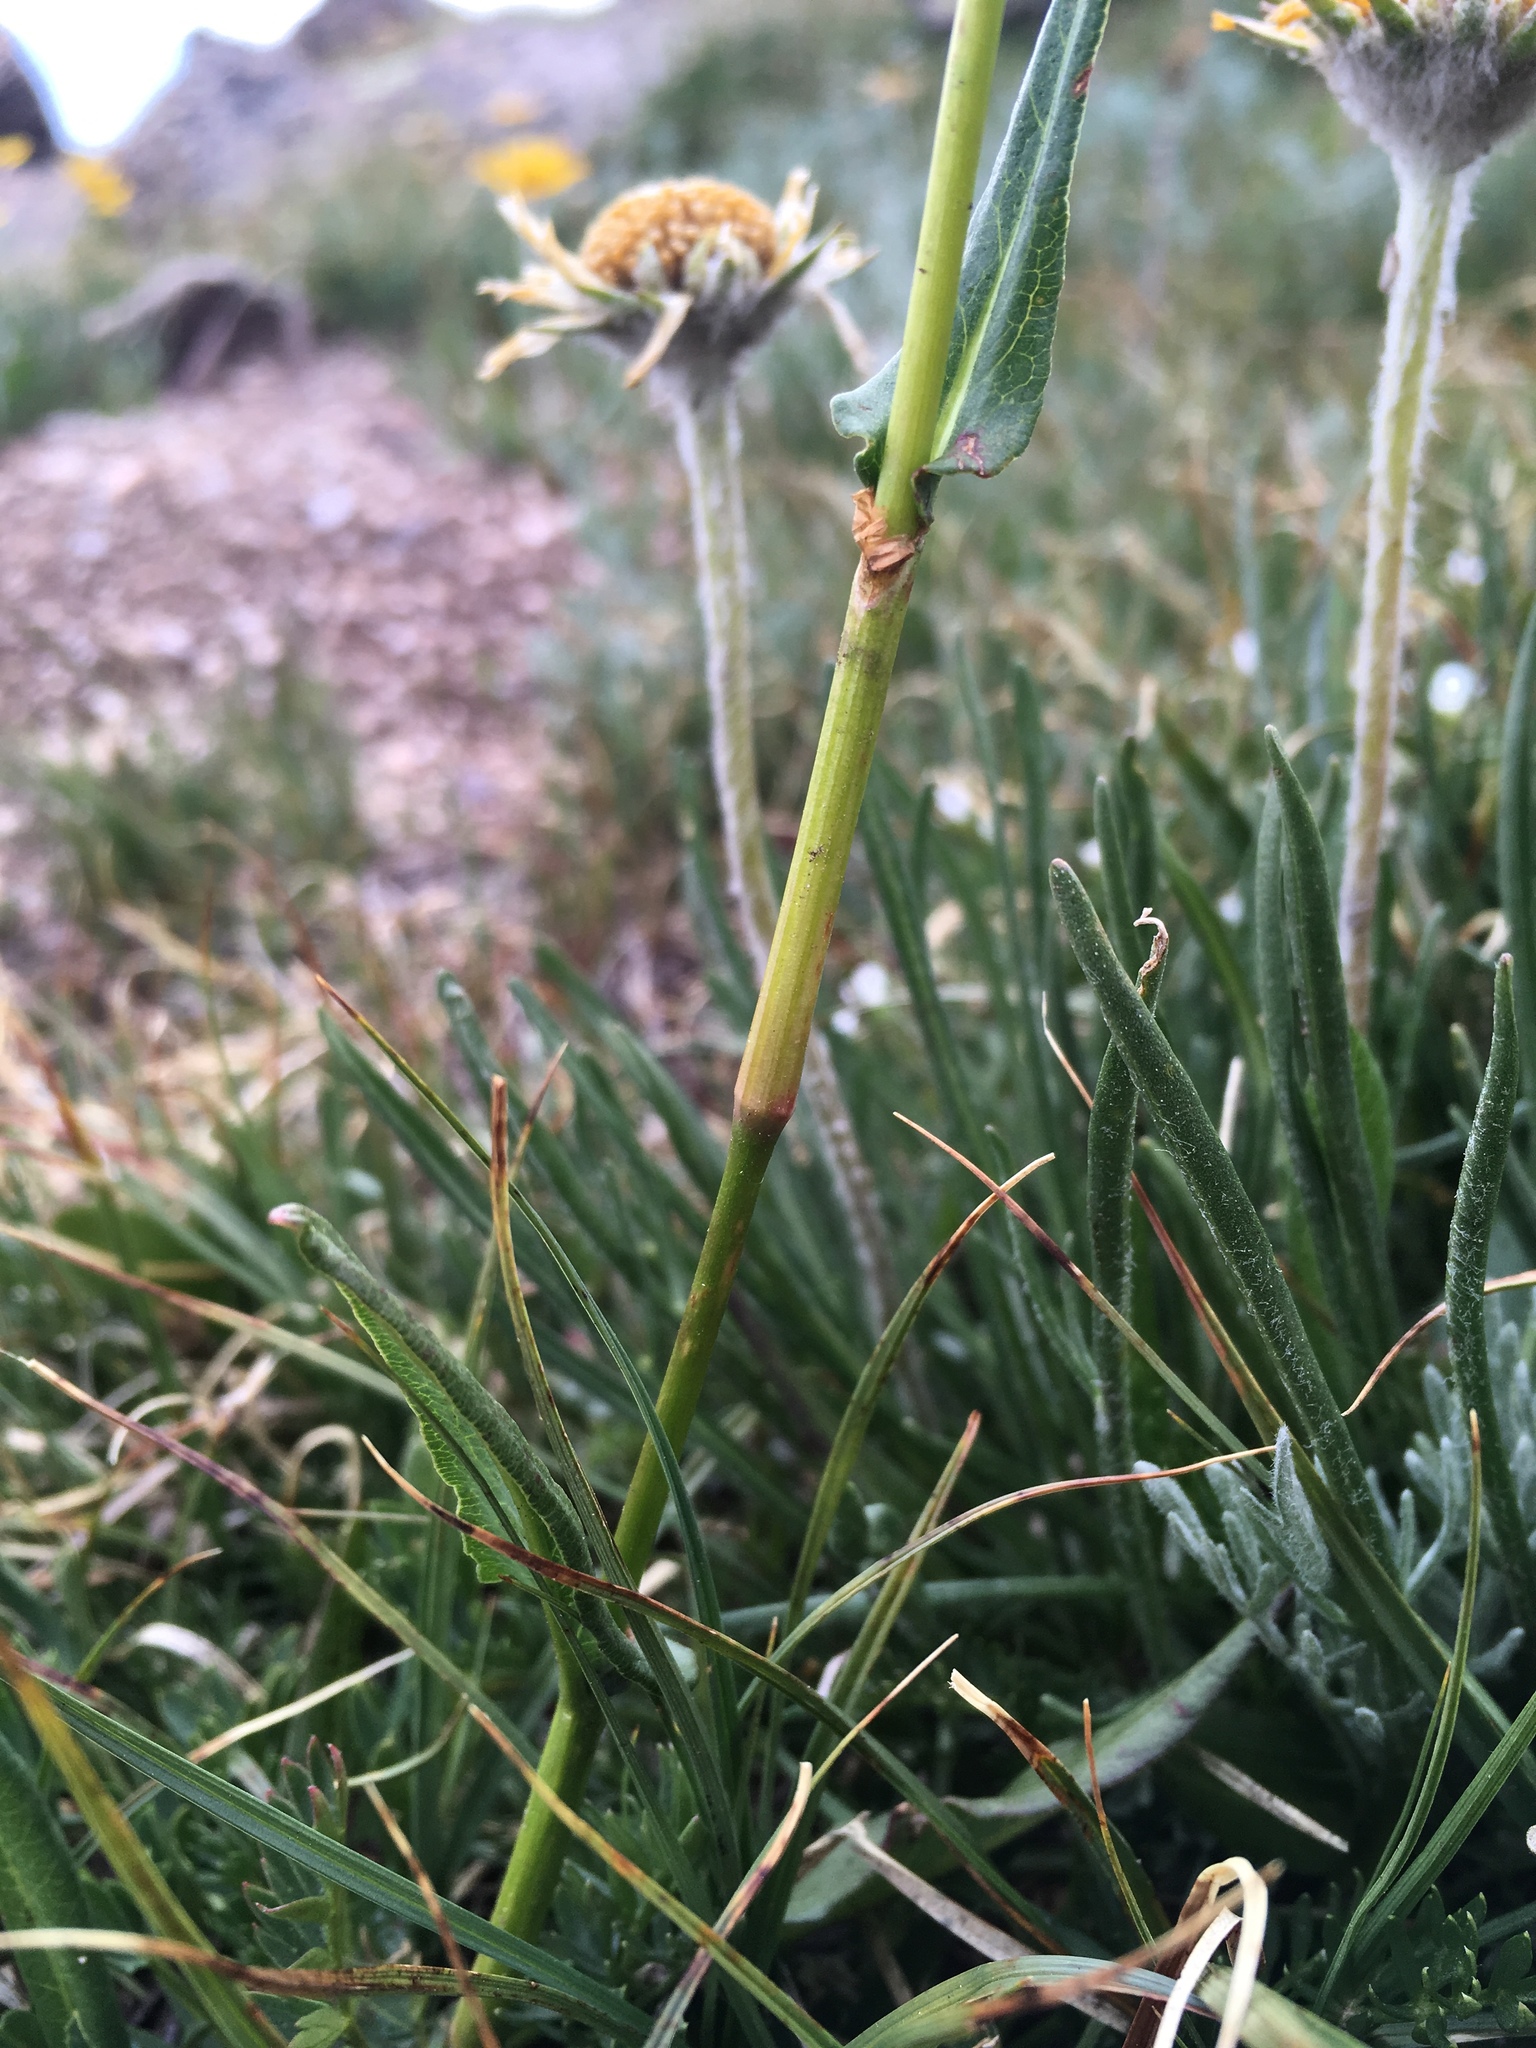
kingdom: Plantae
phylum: Tracheophyta
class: Magnoliopsida
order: Caryophyllales
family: Polygonaceae
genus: Bistorta
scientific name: Bistorta bistortoides
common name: American bistort
